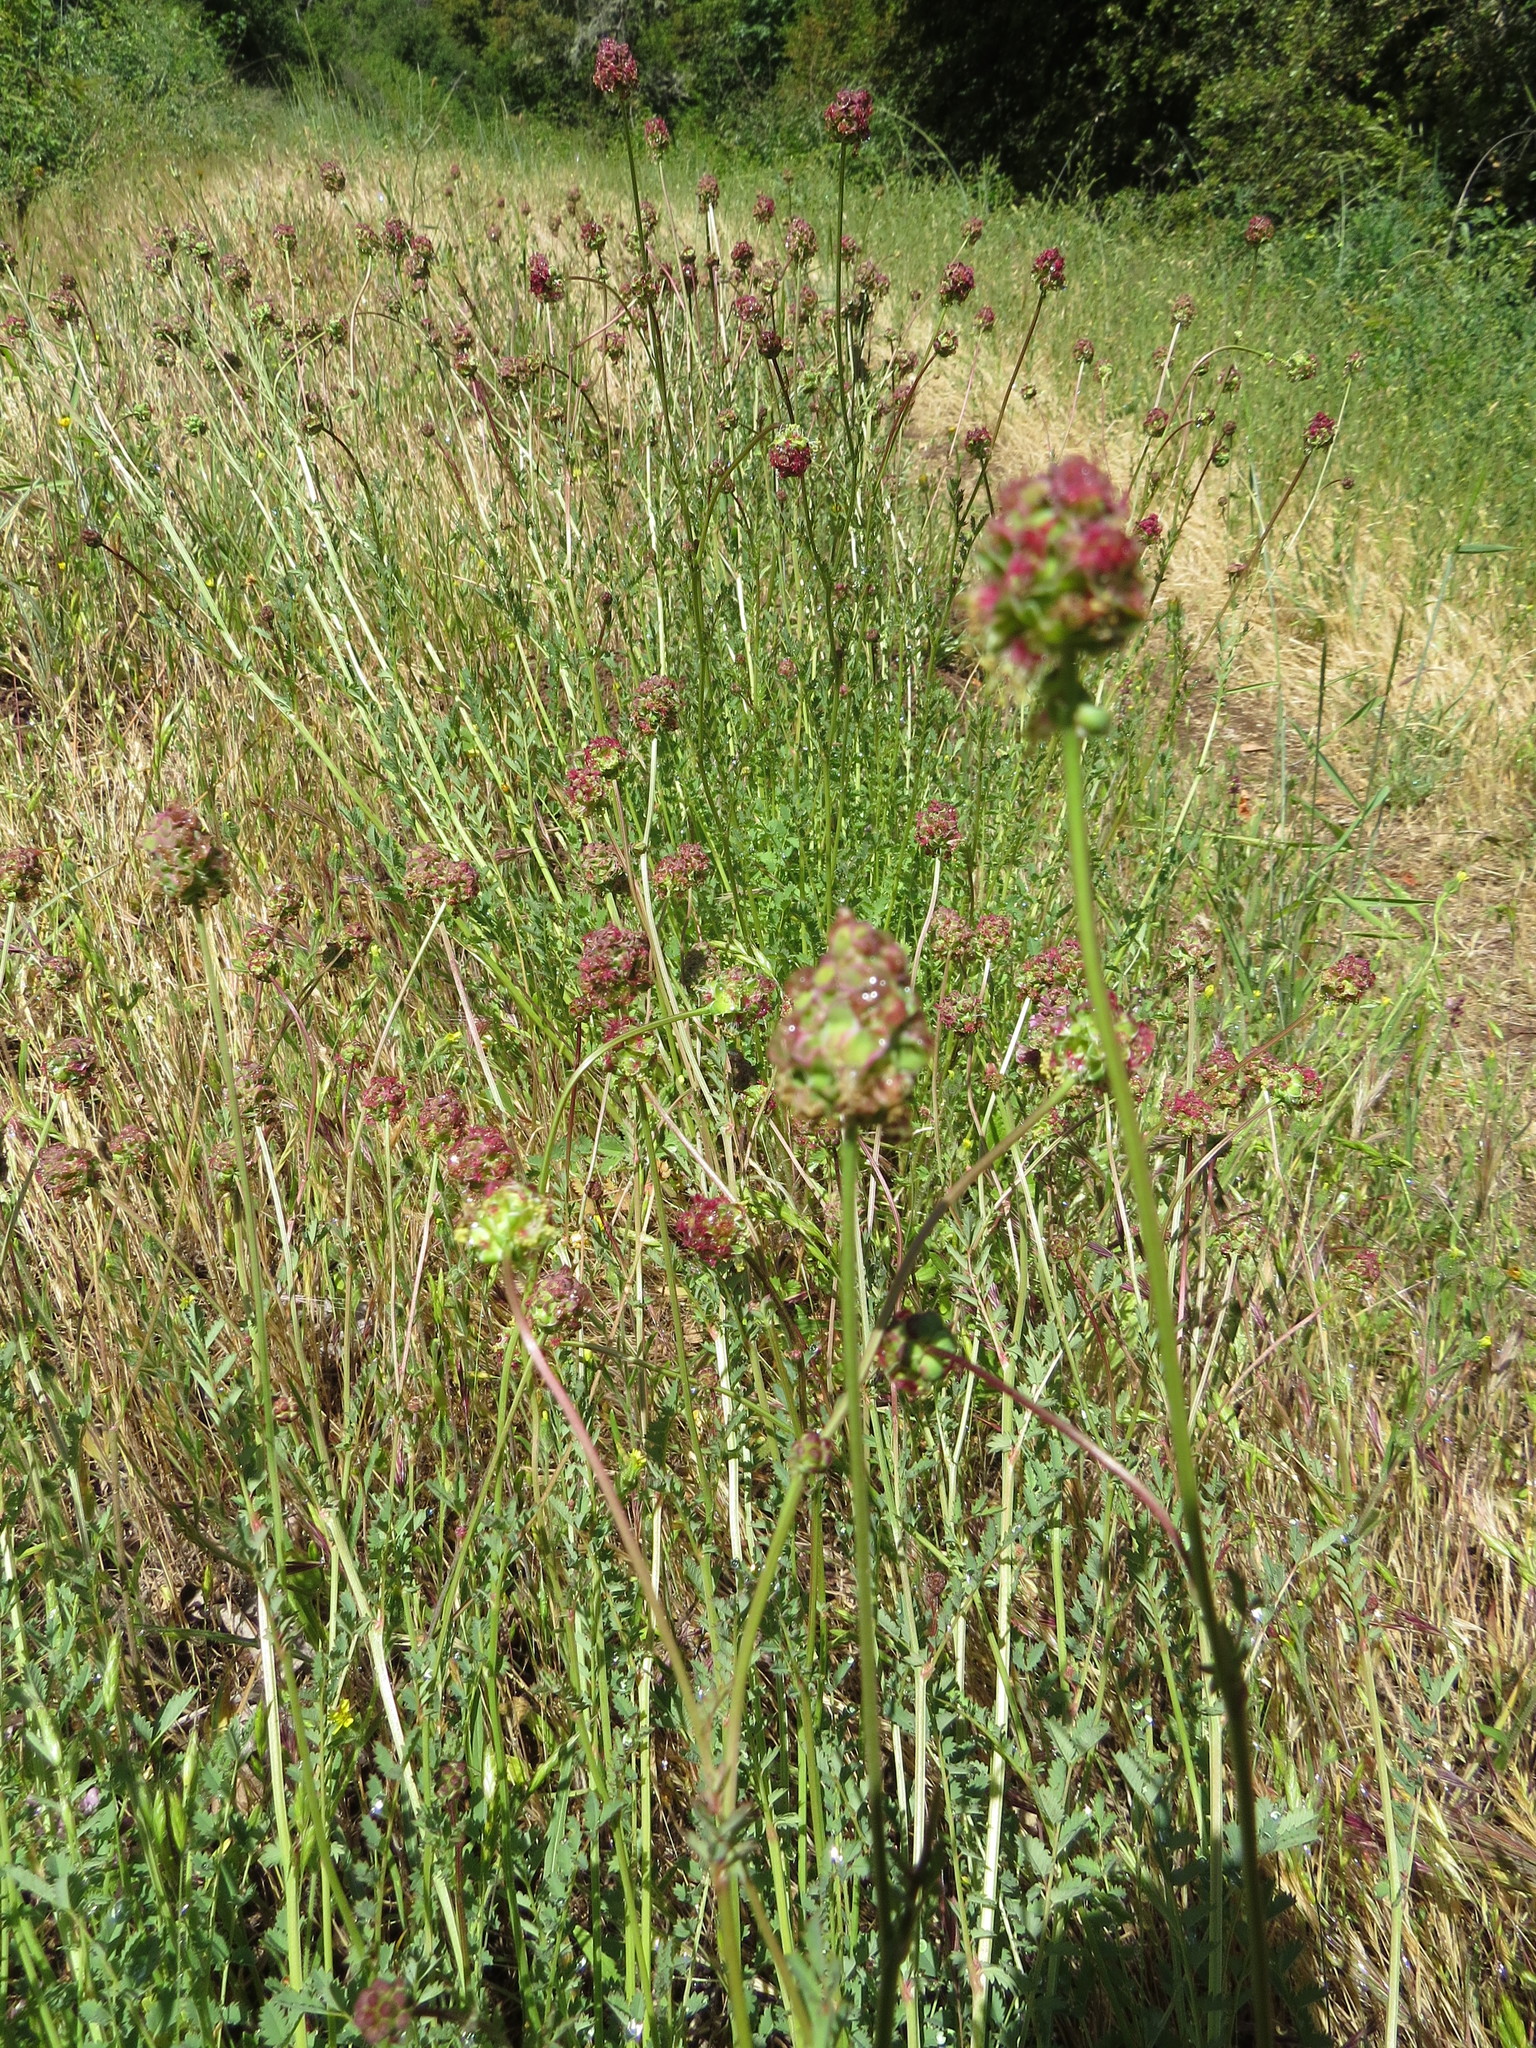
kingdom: Plantae
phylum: Tracheophyta
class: Magnoliopsida
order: Rosales
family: Rosaceae
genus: Poterium
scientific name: Poterium sanguisorba
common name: Salad burnet
